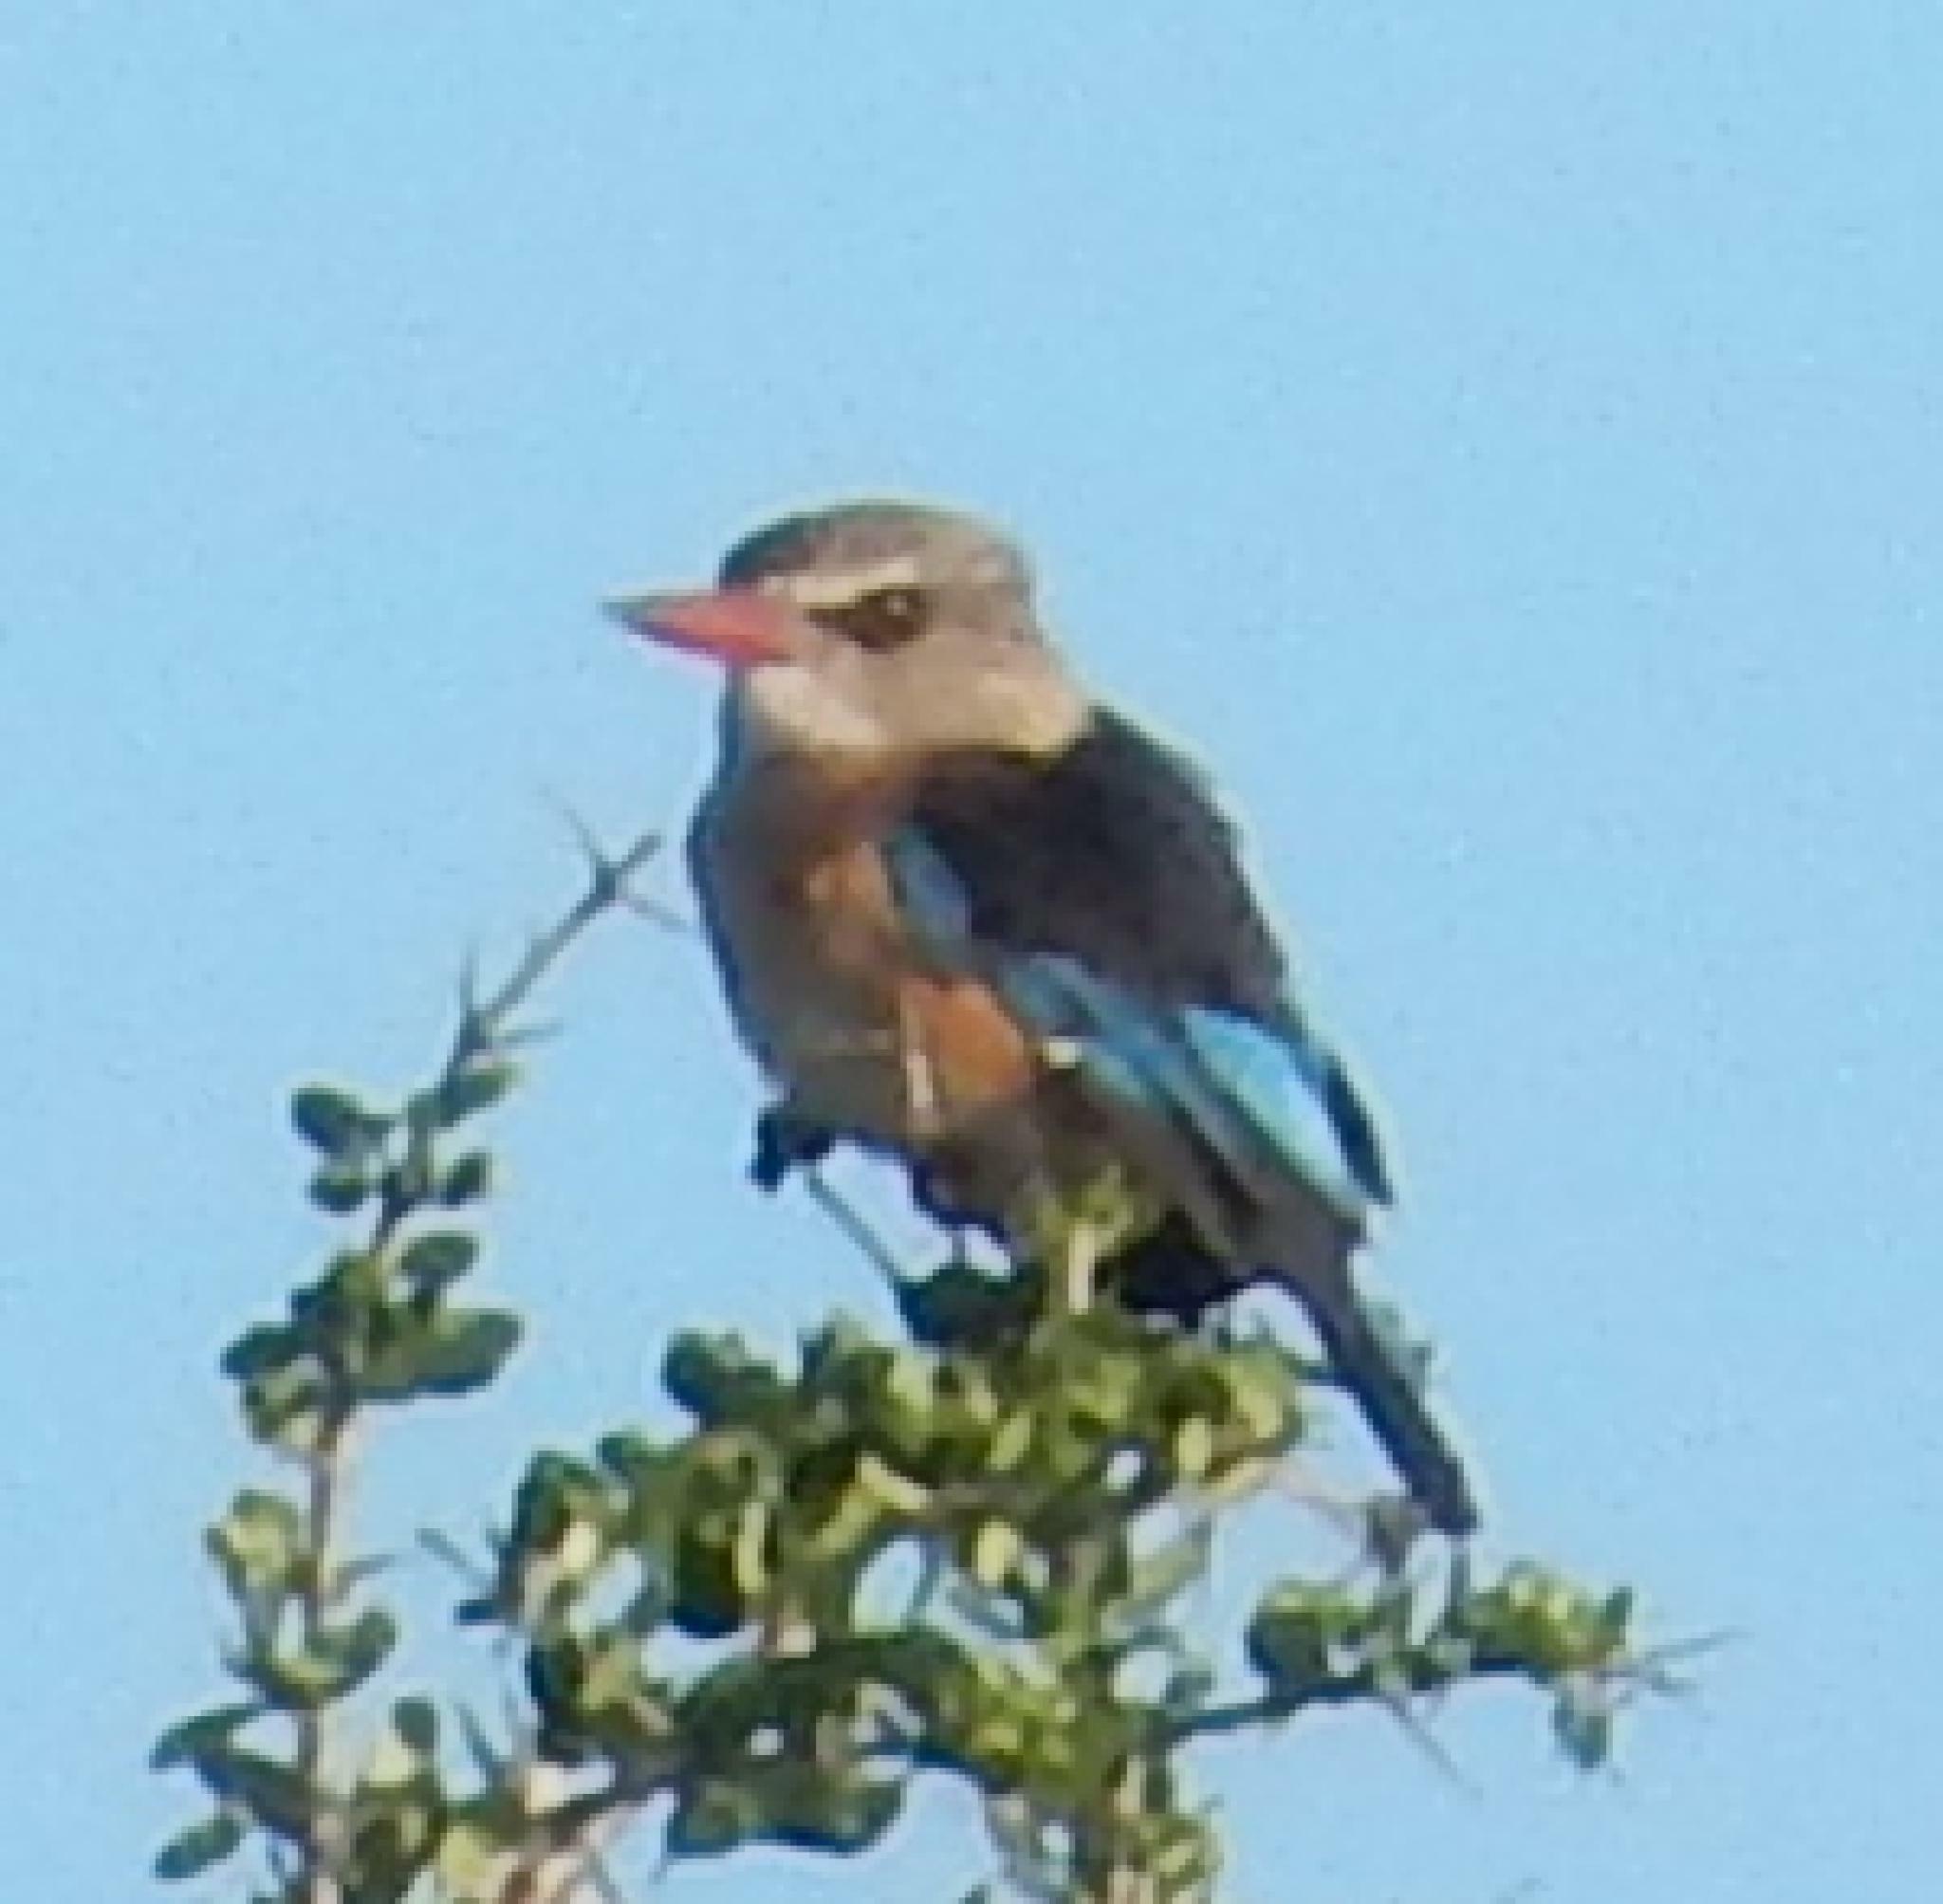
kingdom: Animalia
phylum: Chordata
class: Aves
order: Coraciiformes
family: Alcedinidae
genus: Halcyon
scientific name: Halcyon albiventris
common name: Brown-hooded kingfisher
